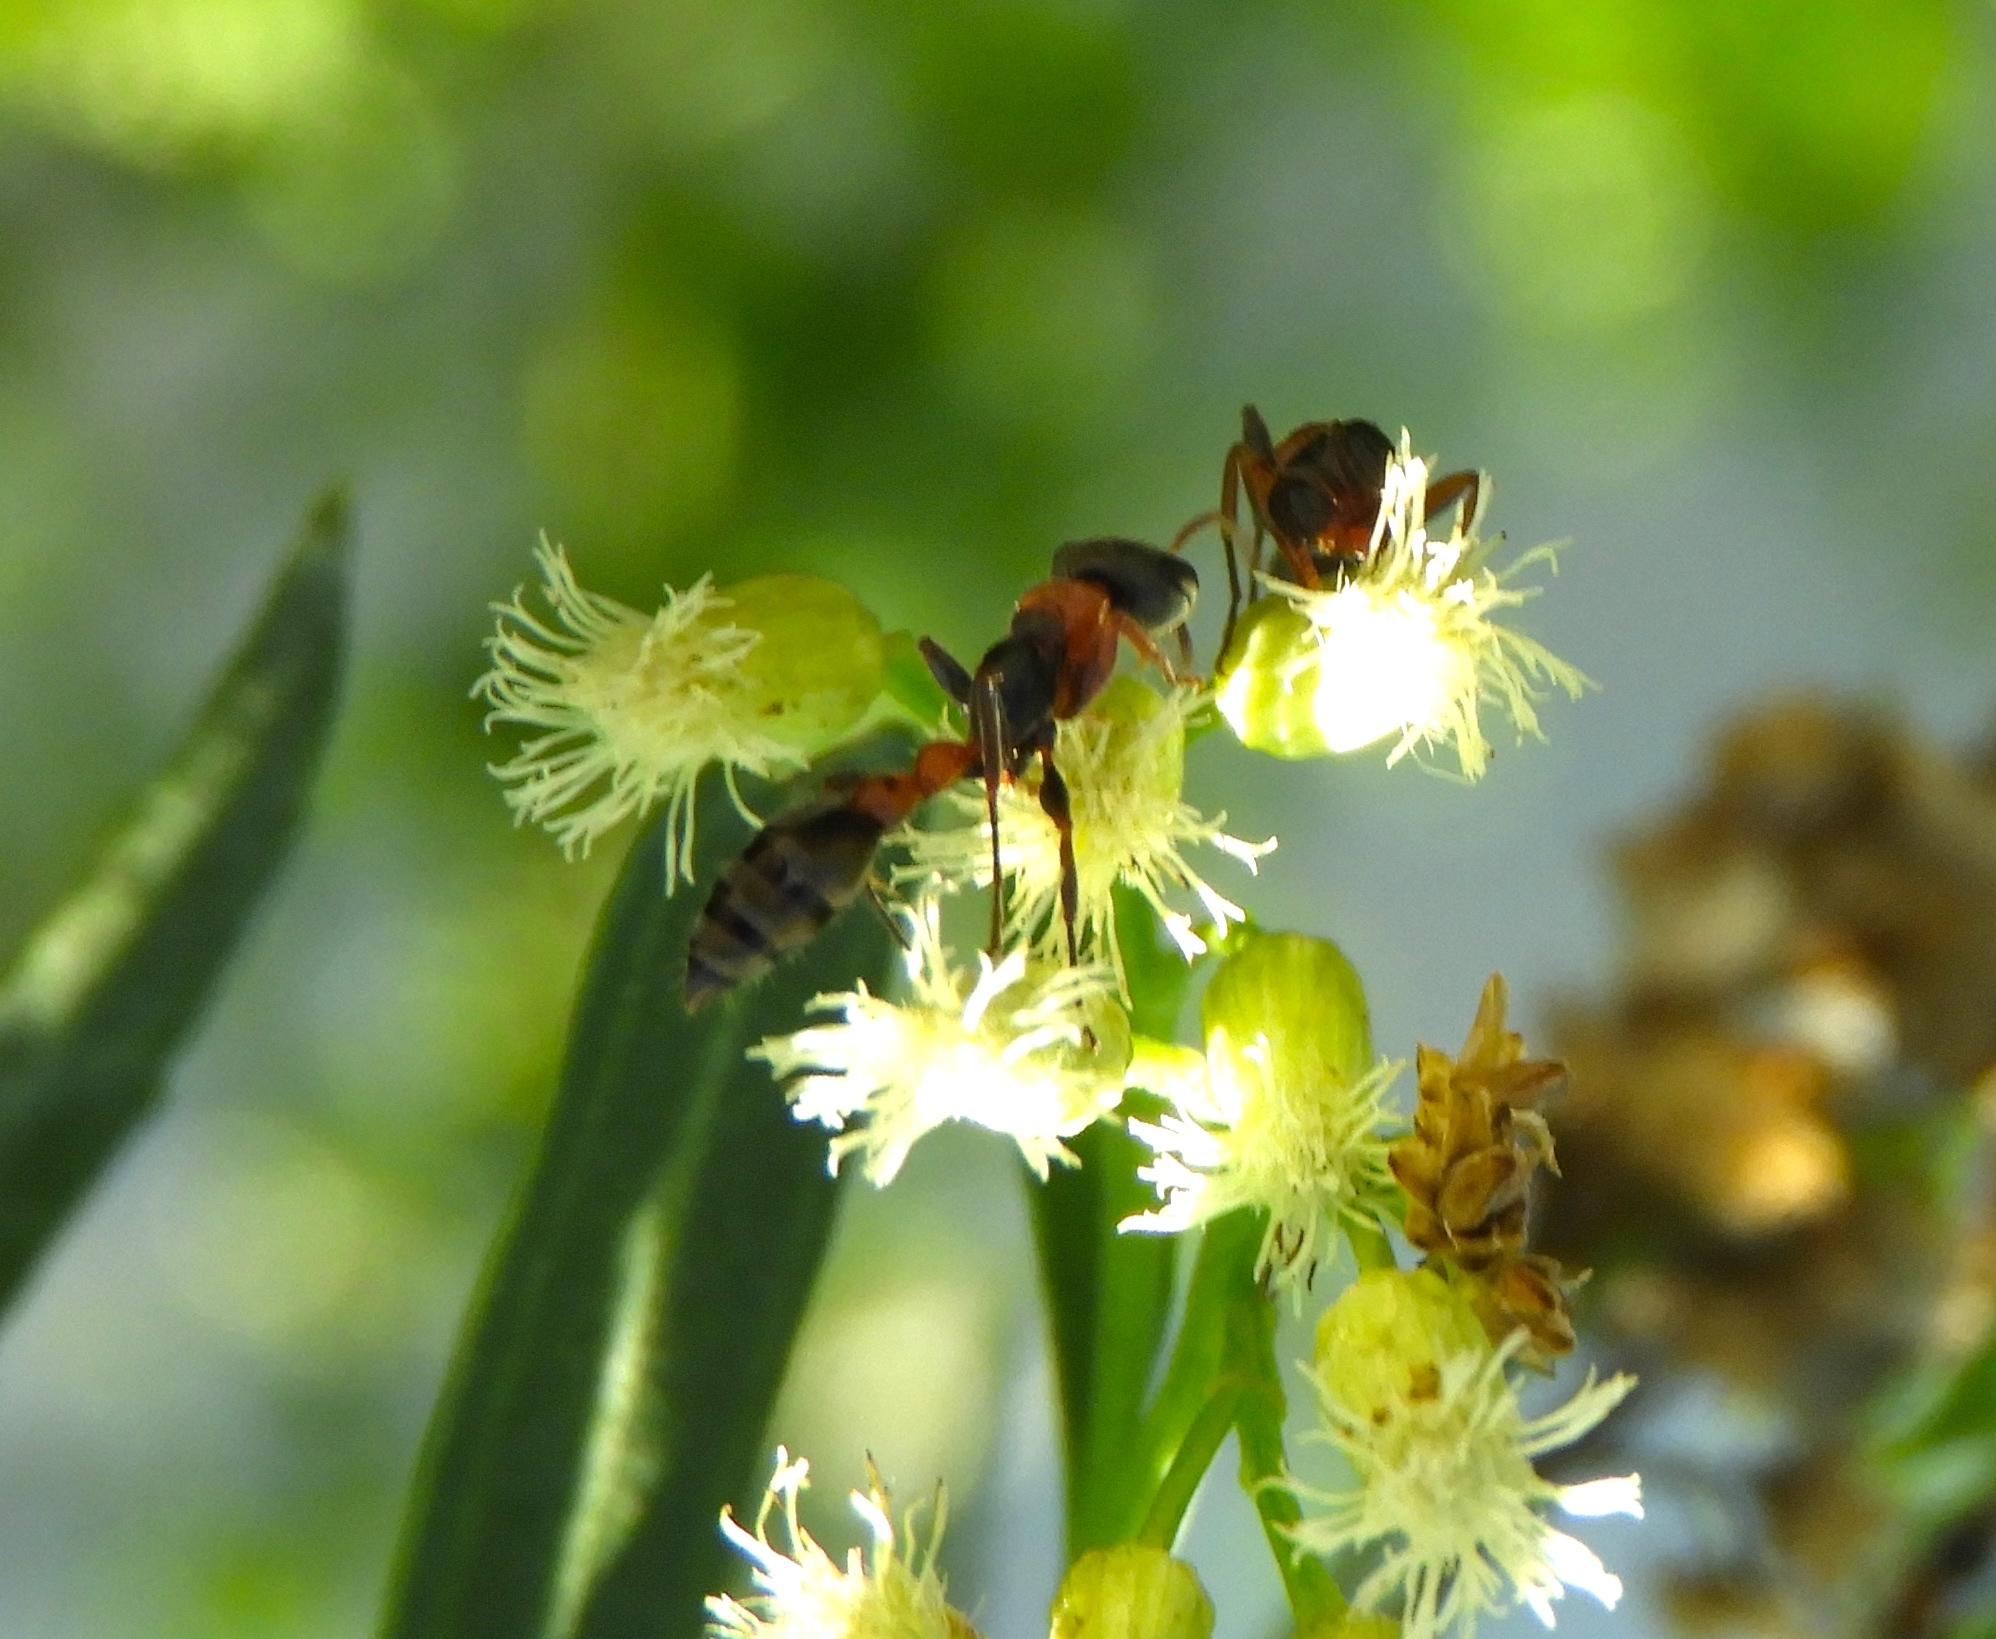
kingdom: Animalia
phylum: Arthropoda
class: Insecta
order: Hymenoptera
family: Formicidae
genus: Pseudomyrmex
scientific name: Pseudomyrmex gracilis
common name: Graceful twig ant
